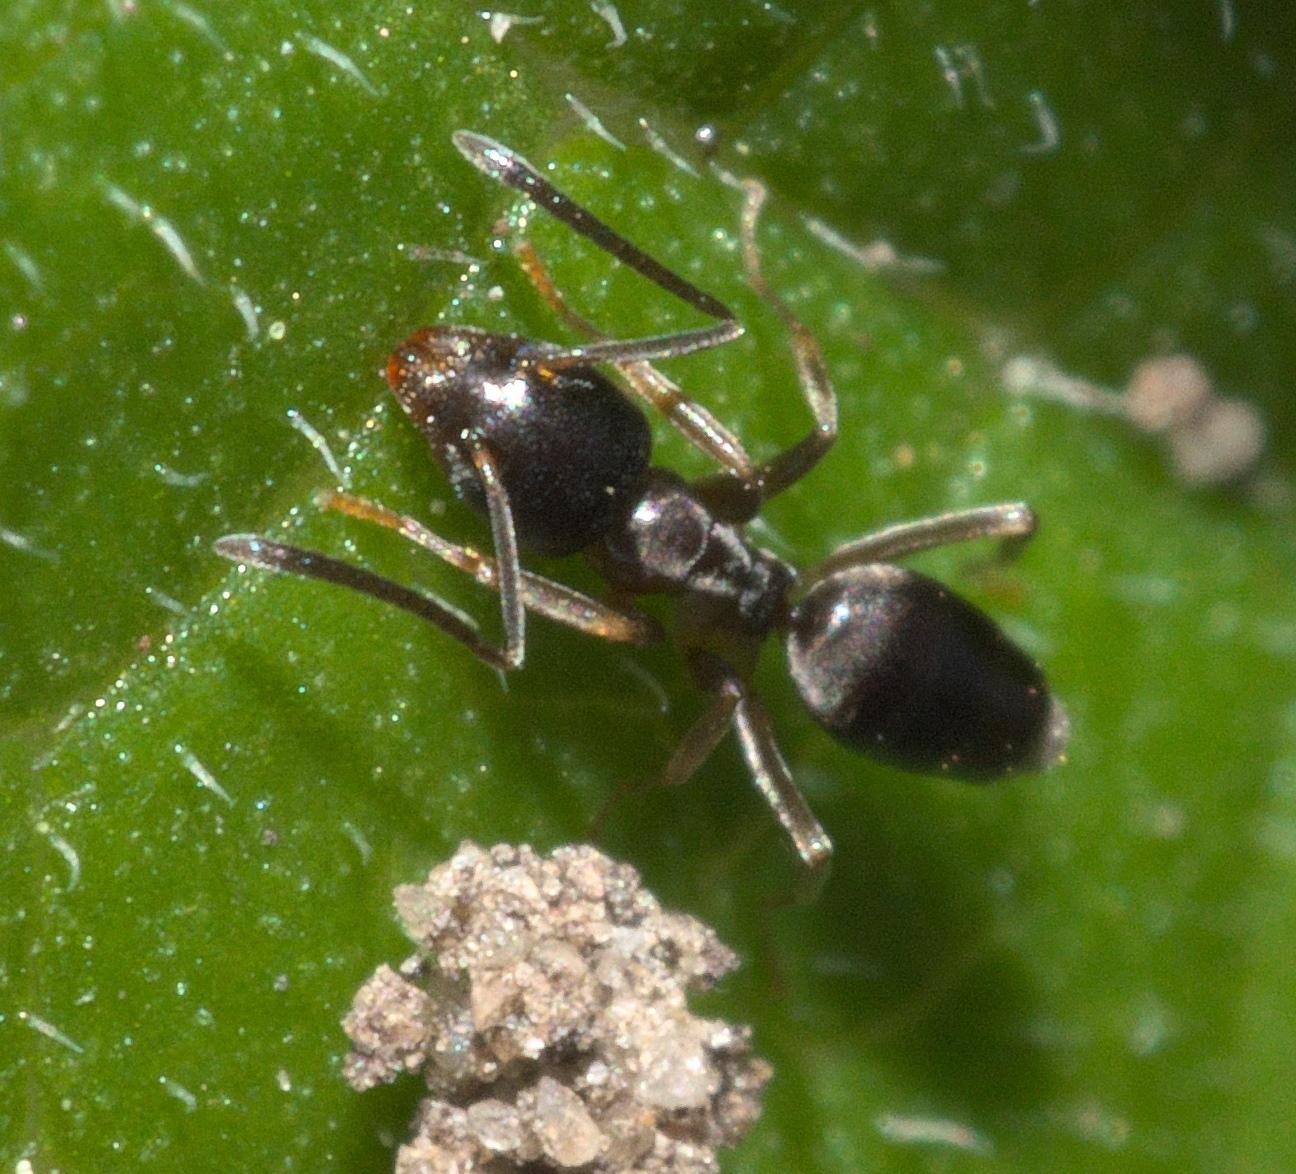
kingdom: Animalia
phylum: Arthropoda
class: Insecta
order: Hymenoptera
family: Formicidae
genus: Tapinoma
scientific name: Tapinoma sessile
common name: Odorous house ant
